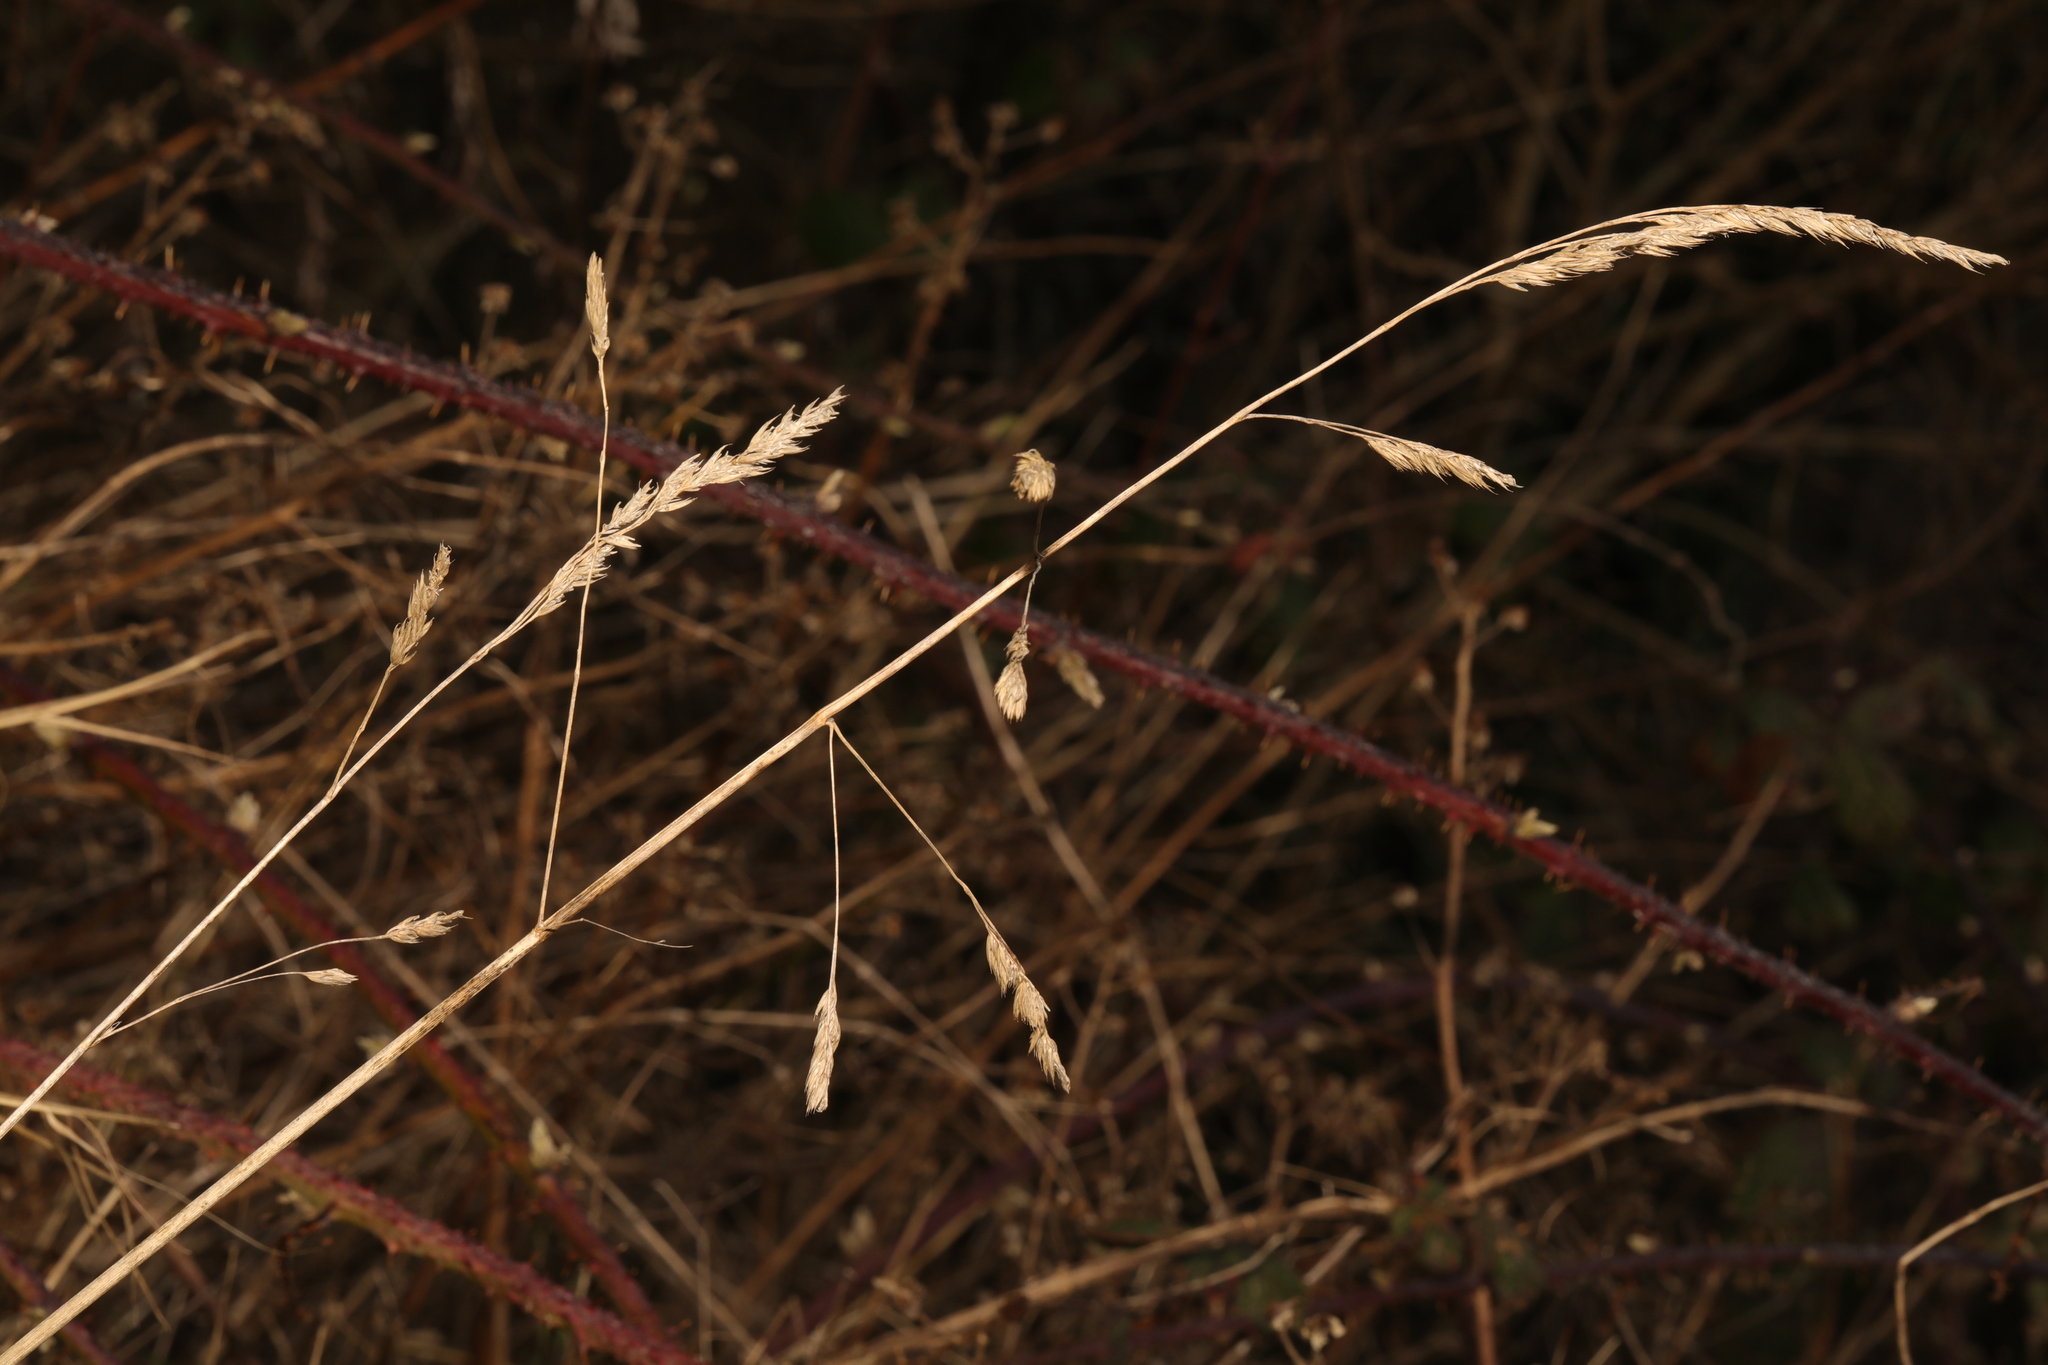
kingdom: Plantae
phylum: Tracheophyta
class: Liliopsida
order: Poales
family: Poaceae
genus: Dactylis
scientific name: Dactylis glomerata
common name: Orchardgrass
